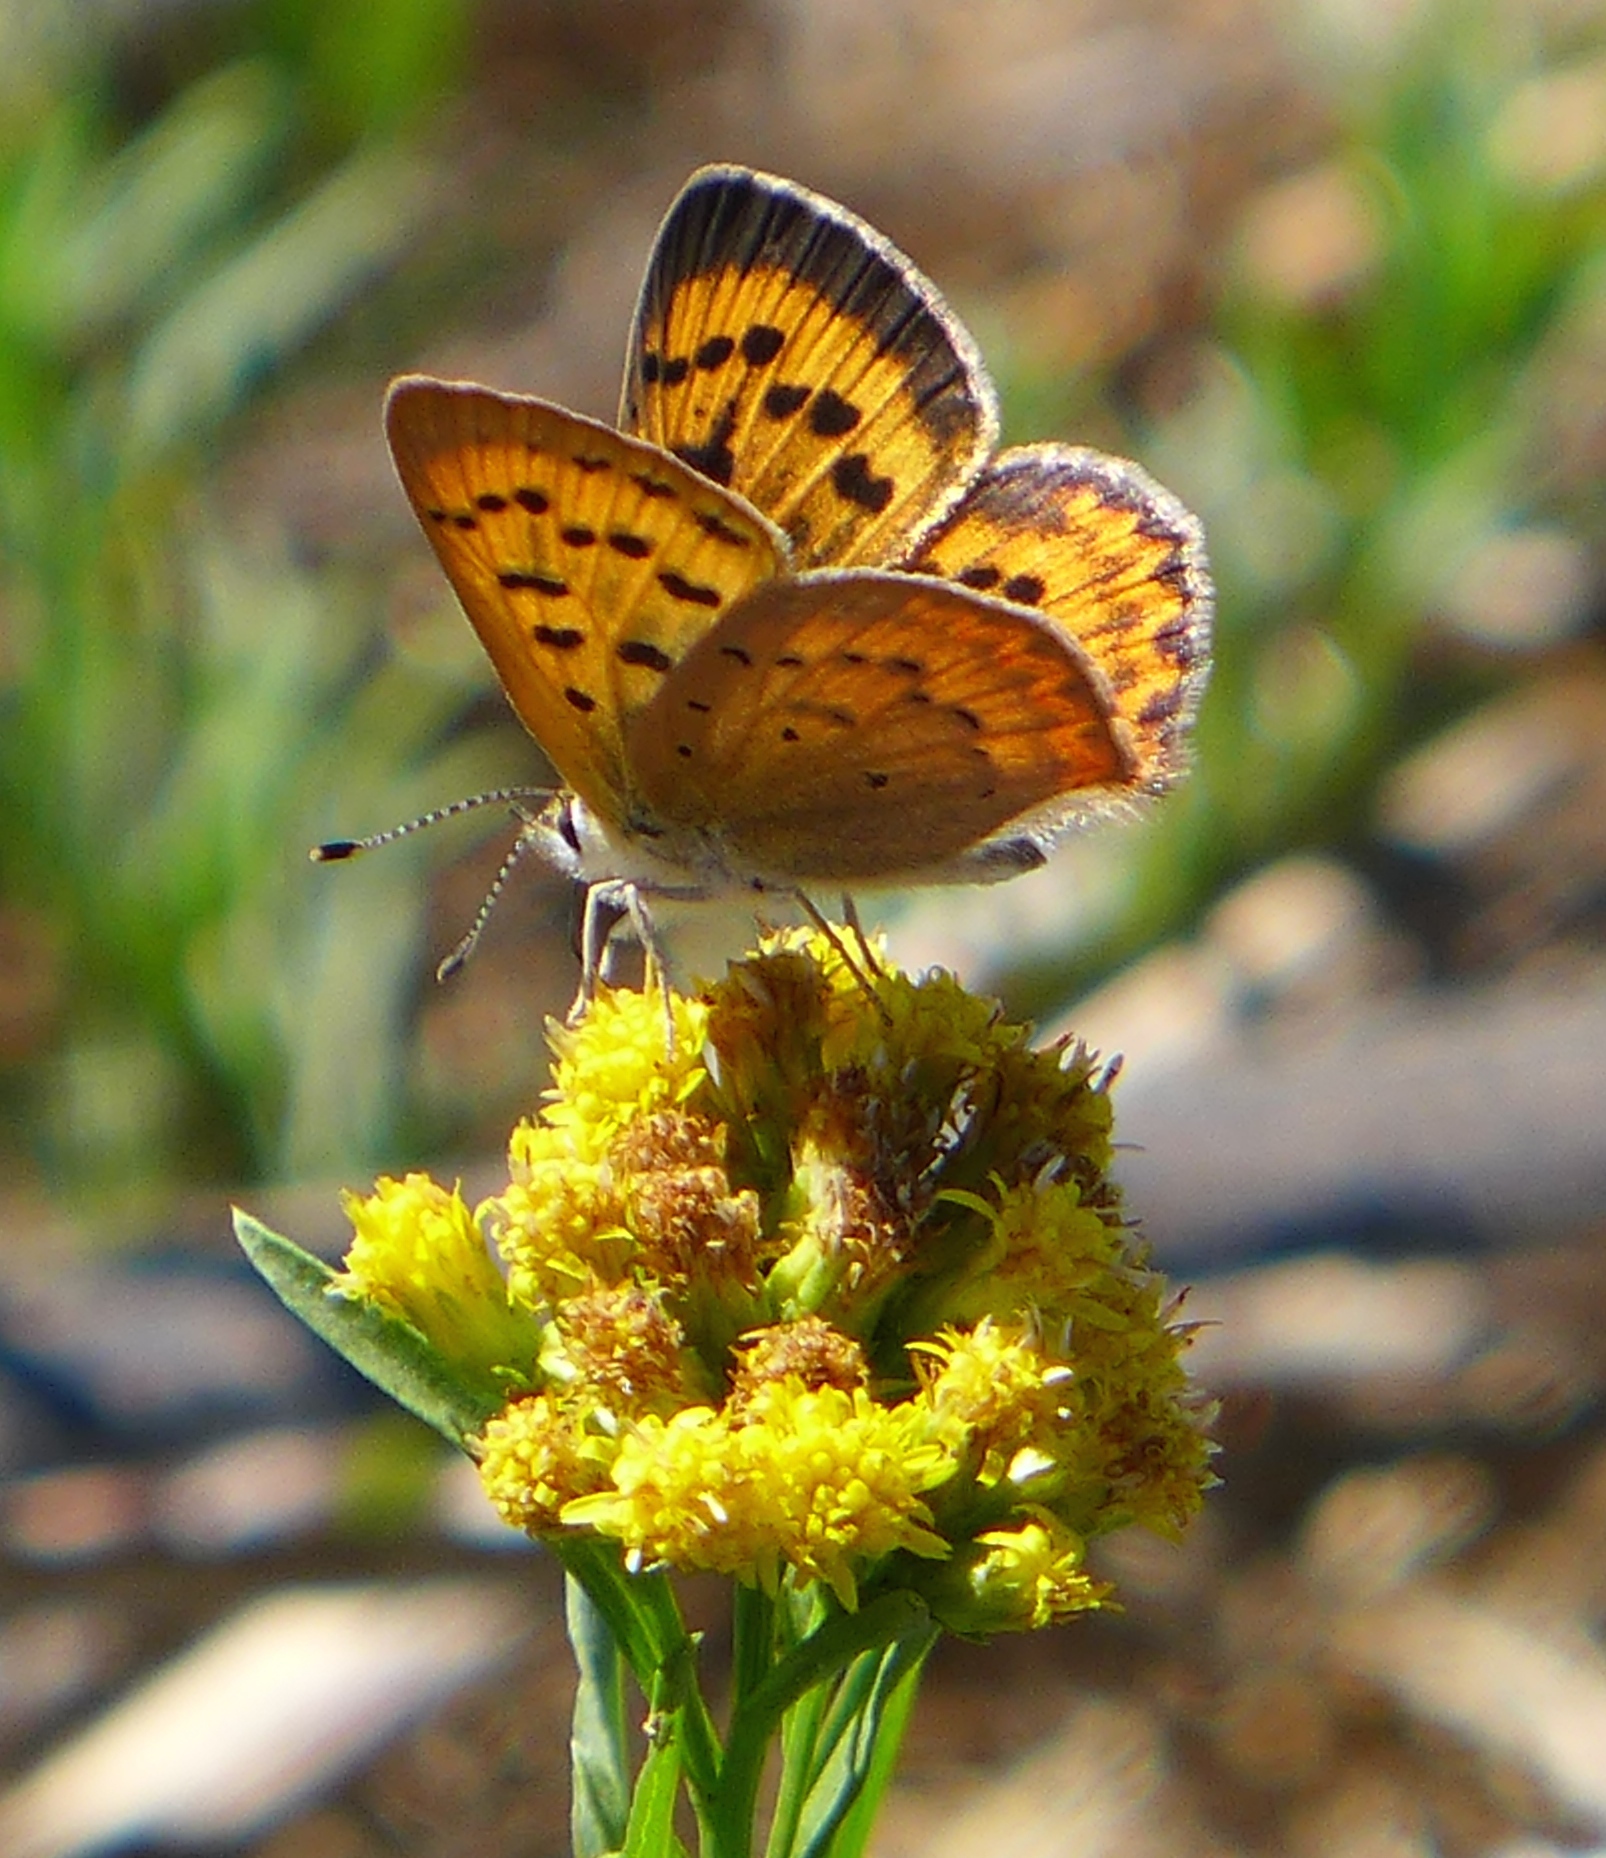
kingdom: Animalia
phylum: Arthropoda
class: Insecta
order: Lepidoptera
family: Lycaenidae
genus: Tharsalea
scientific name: Tharsalea helloides
